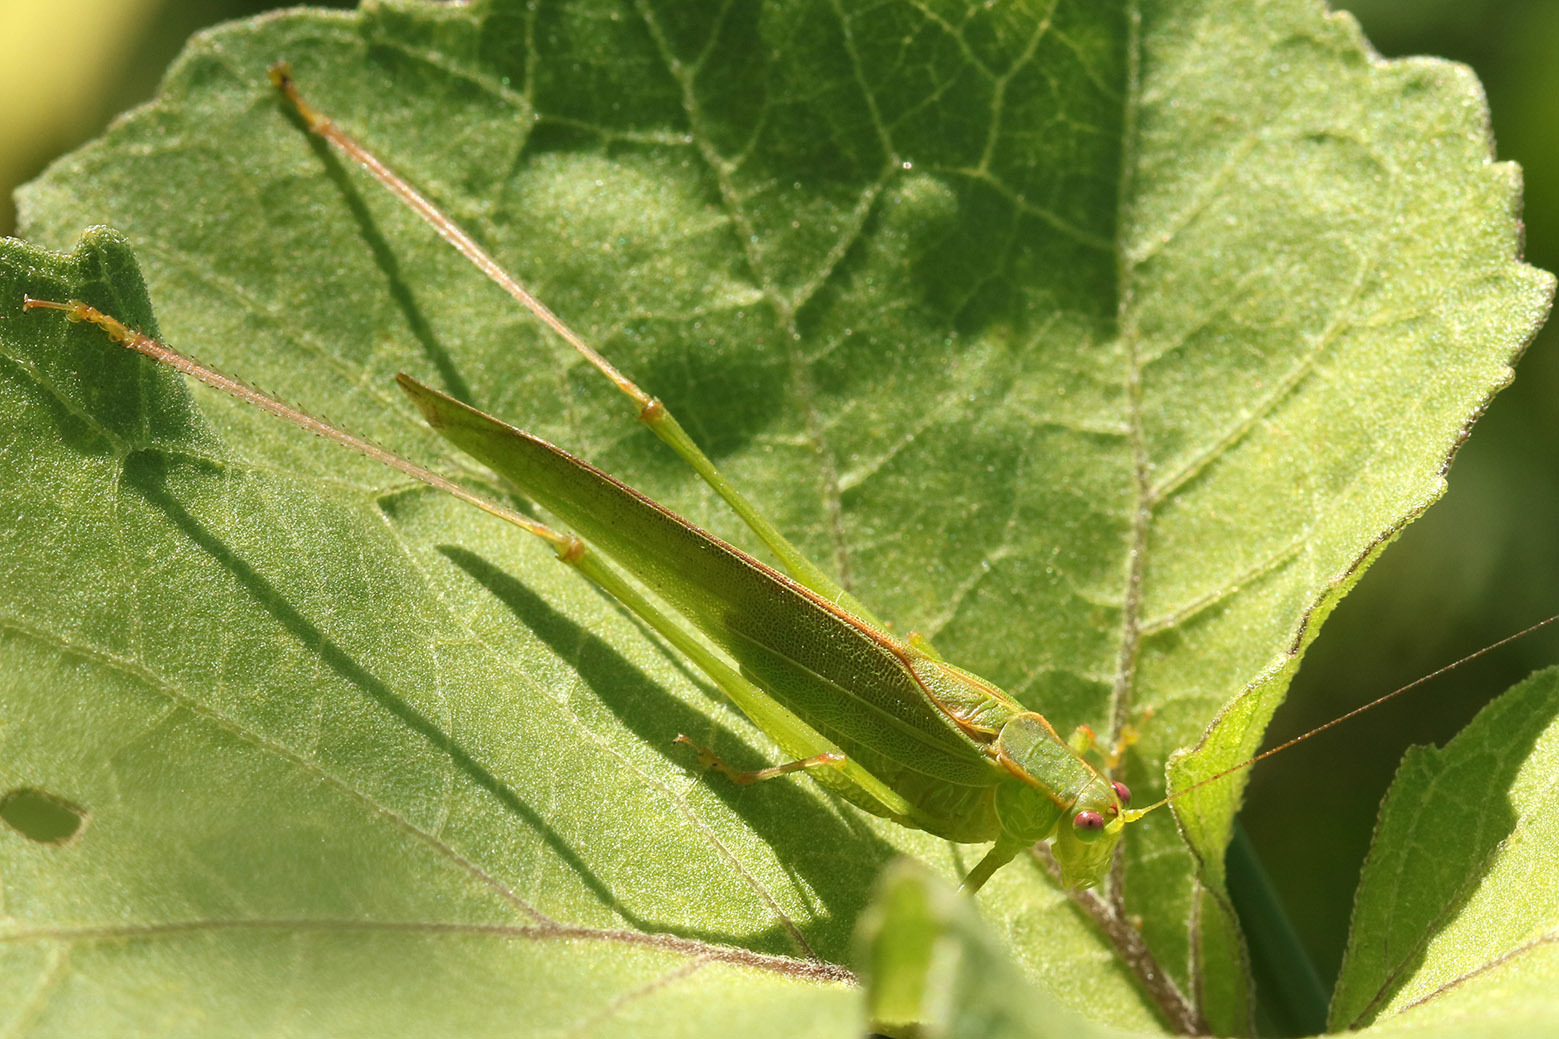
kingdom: Animalia
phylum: Arthropoda
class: Insecta
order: Orthoptera
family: Tettigoniidae
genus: Ligocatinus
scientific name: Ligocatinus spinatus
